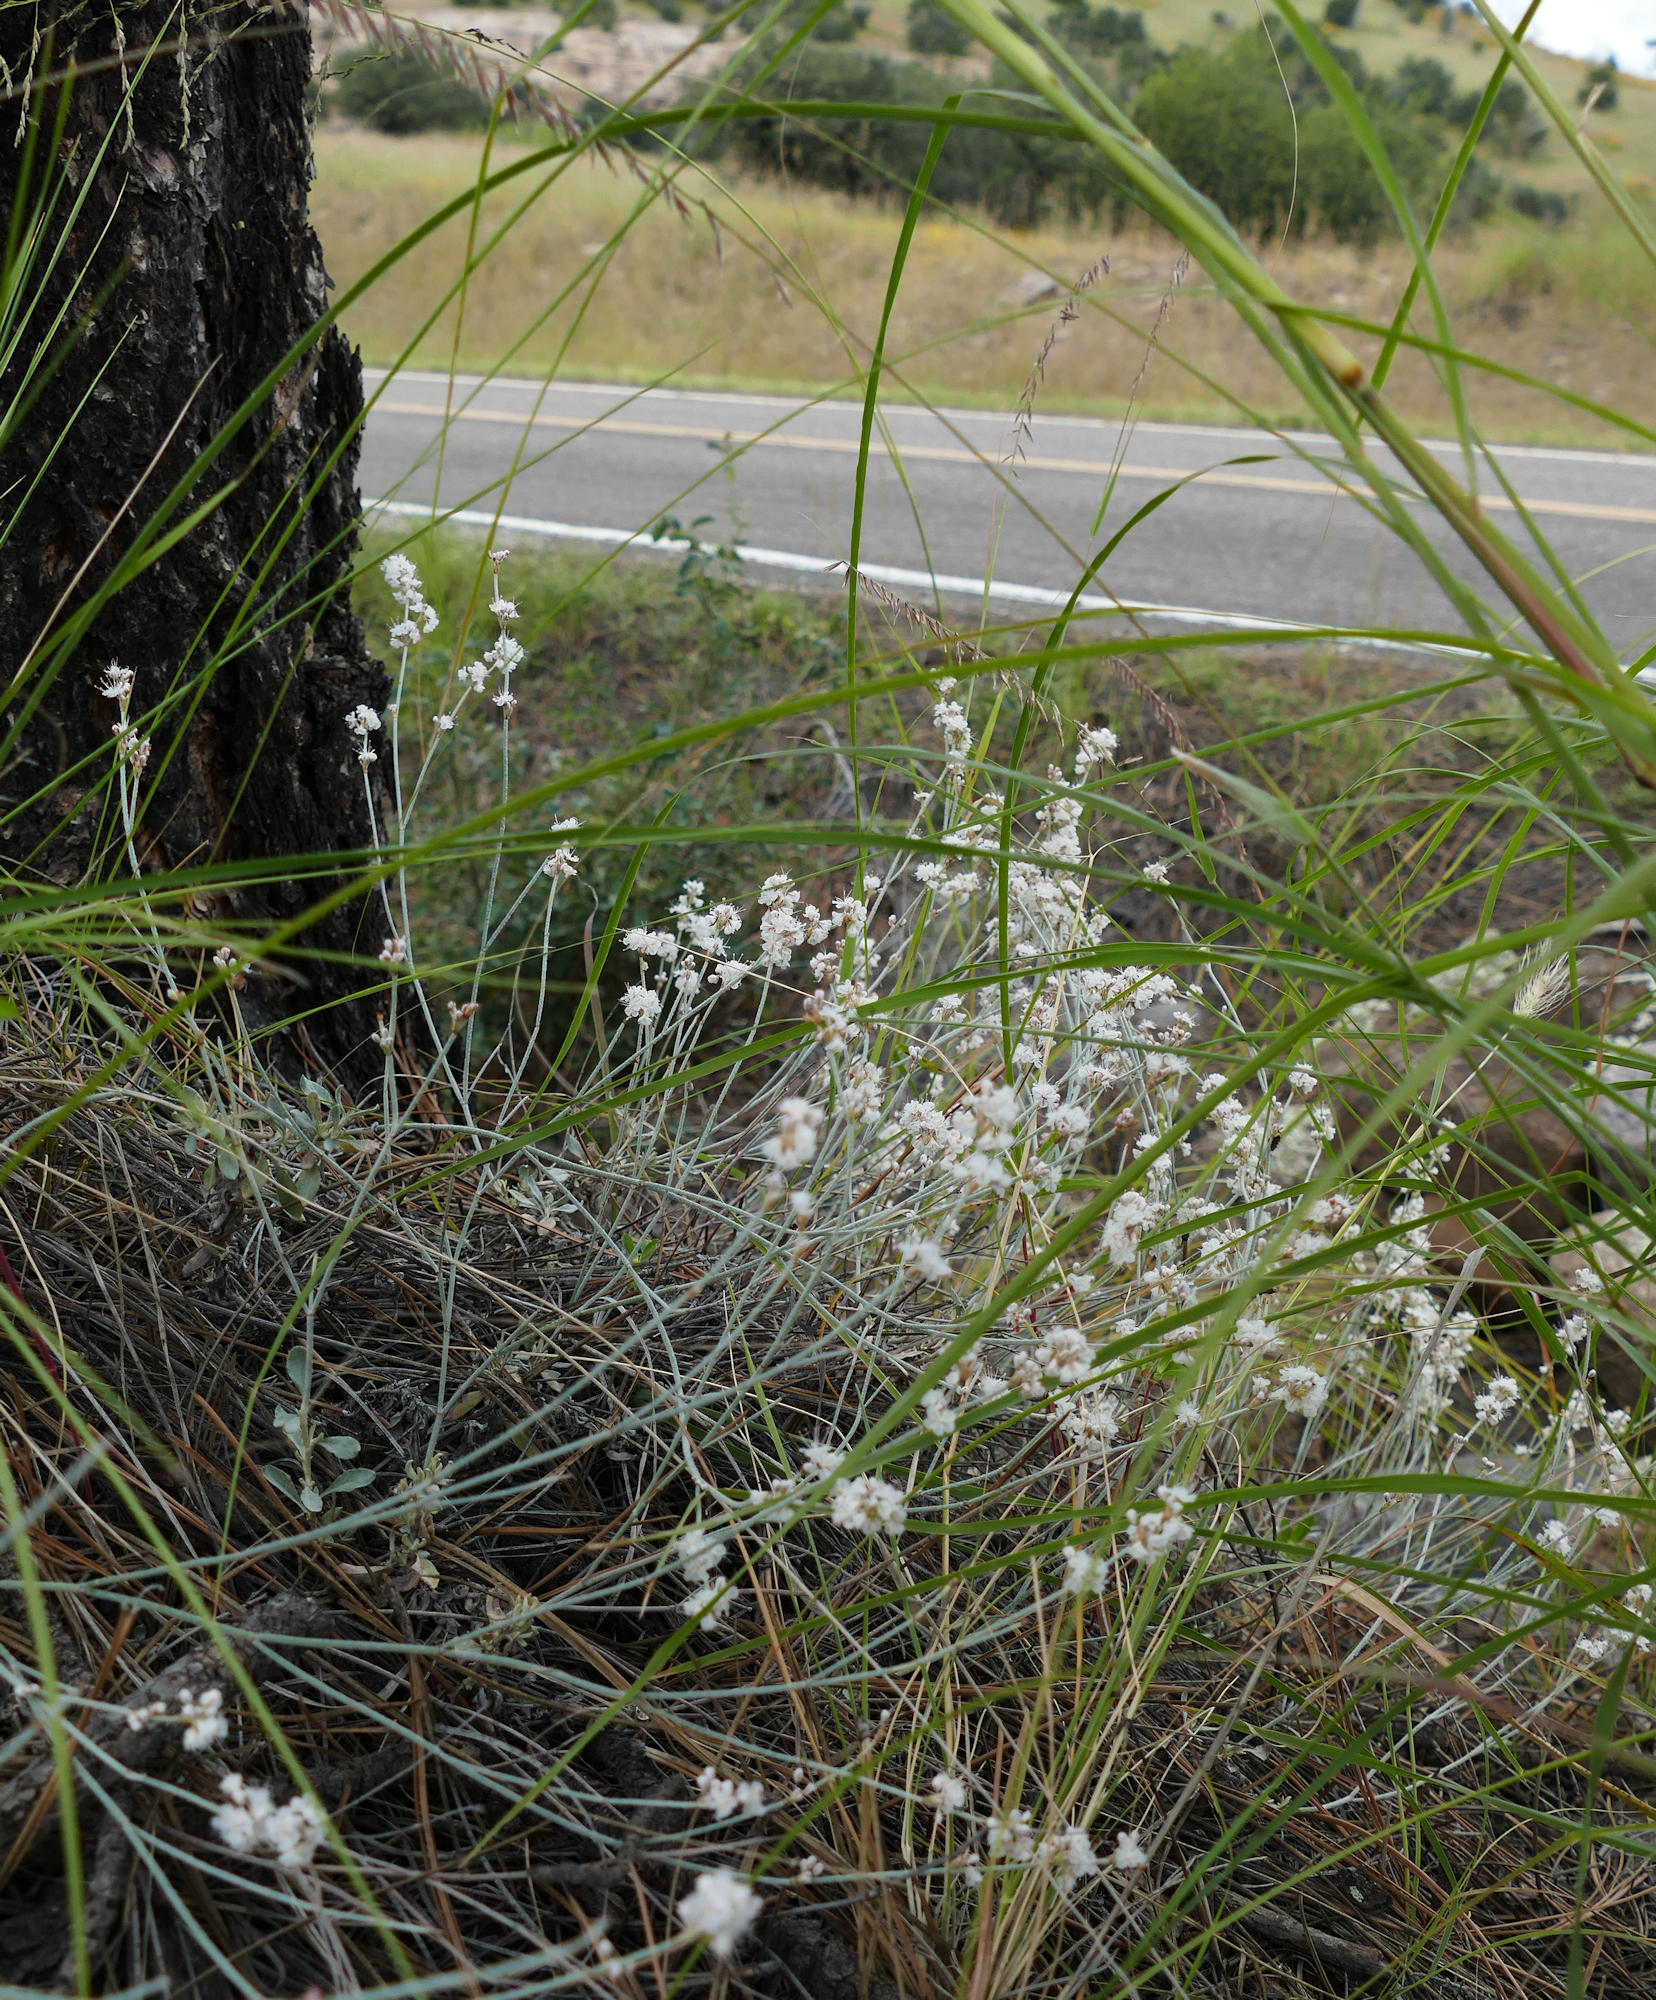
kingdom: Plantae
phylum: Tracheophyta
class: Magnoliopsida
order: Caryophyllales
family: Polygonaceae
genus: Eriogonum
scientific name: Eriogonum wrightii
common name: Bastard-sage
